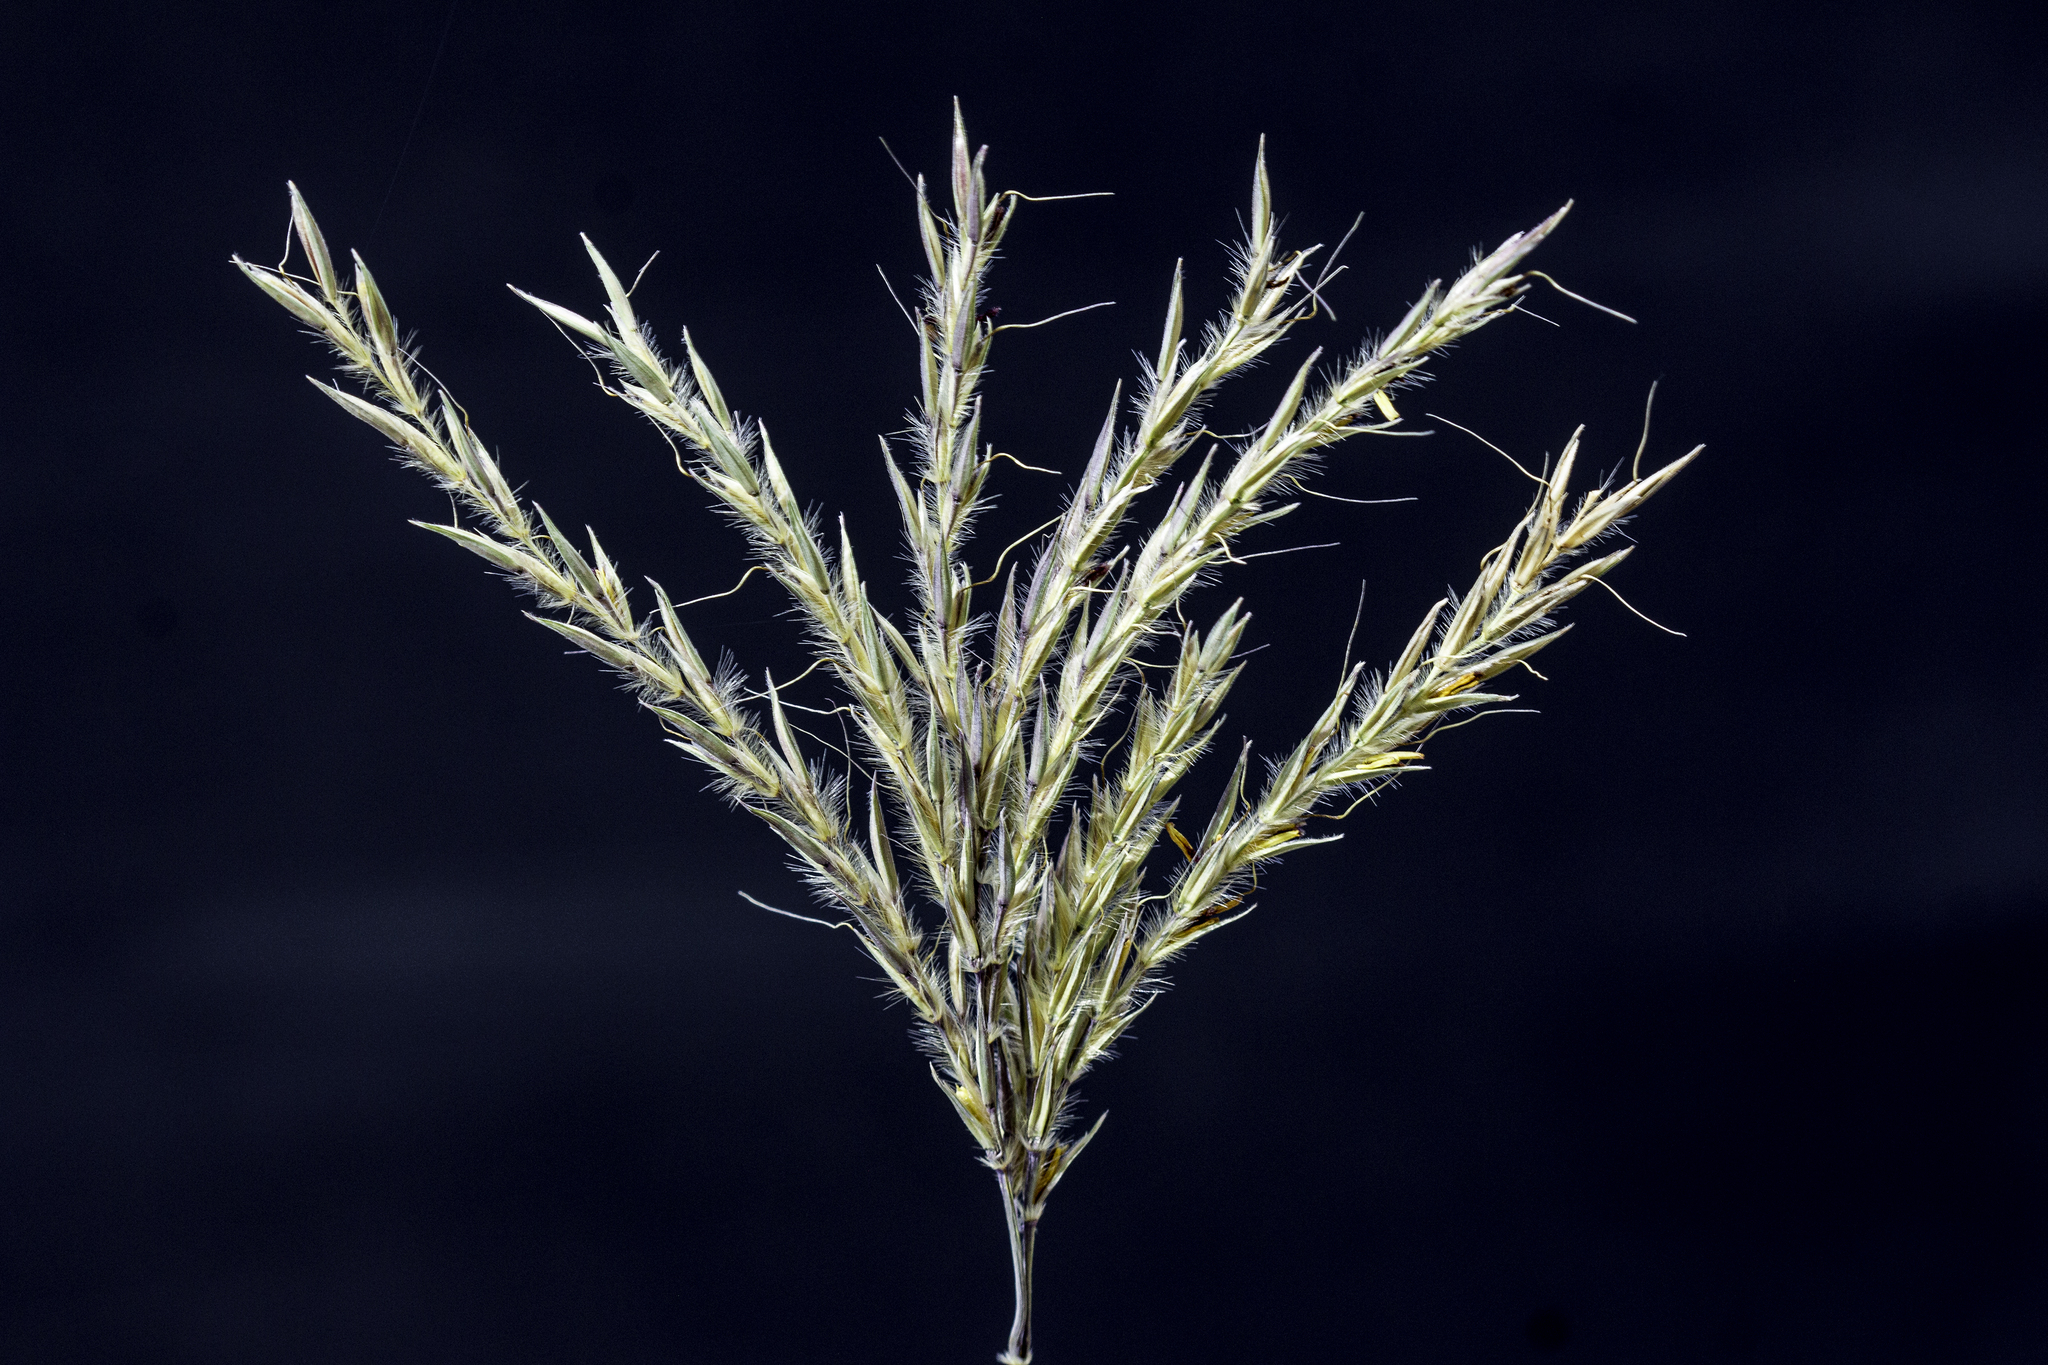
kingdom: Plantae
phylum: Tracheophyta
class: Liliopsida
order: Poales
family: Poaceae
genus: Andropogon
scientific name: Andropogon gerardi
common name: Big bluestem
